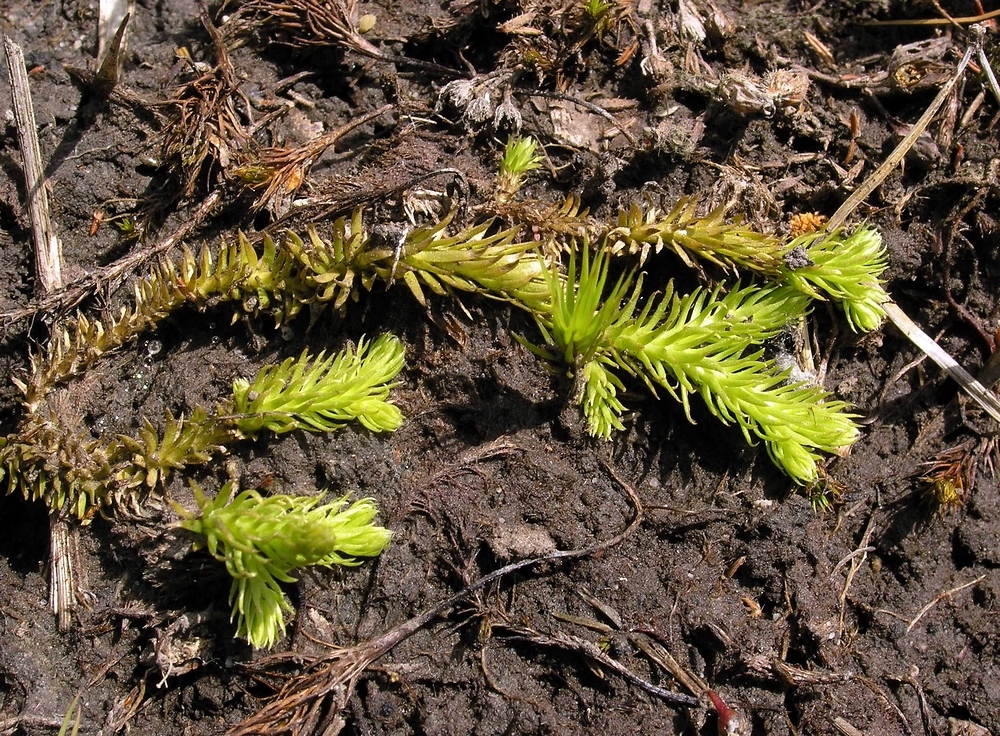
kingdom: Plantae
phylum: Tracheophyta
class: Lycopodiopsida
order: Lycopodiales
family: Lycopodiaceae
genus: Lycopodiella
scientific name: Lycopodiella inundata
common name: Marsh clubmoss
